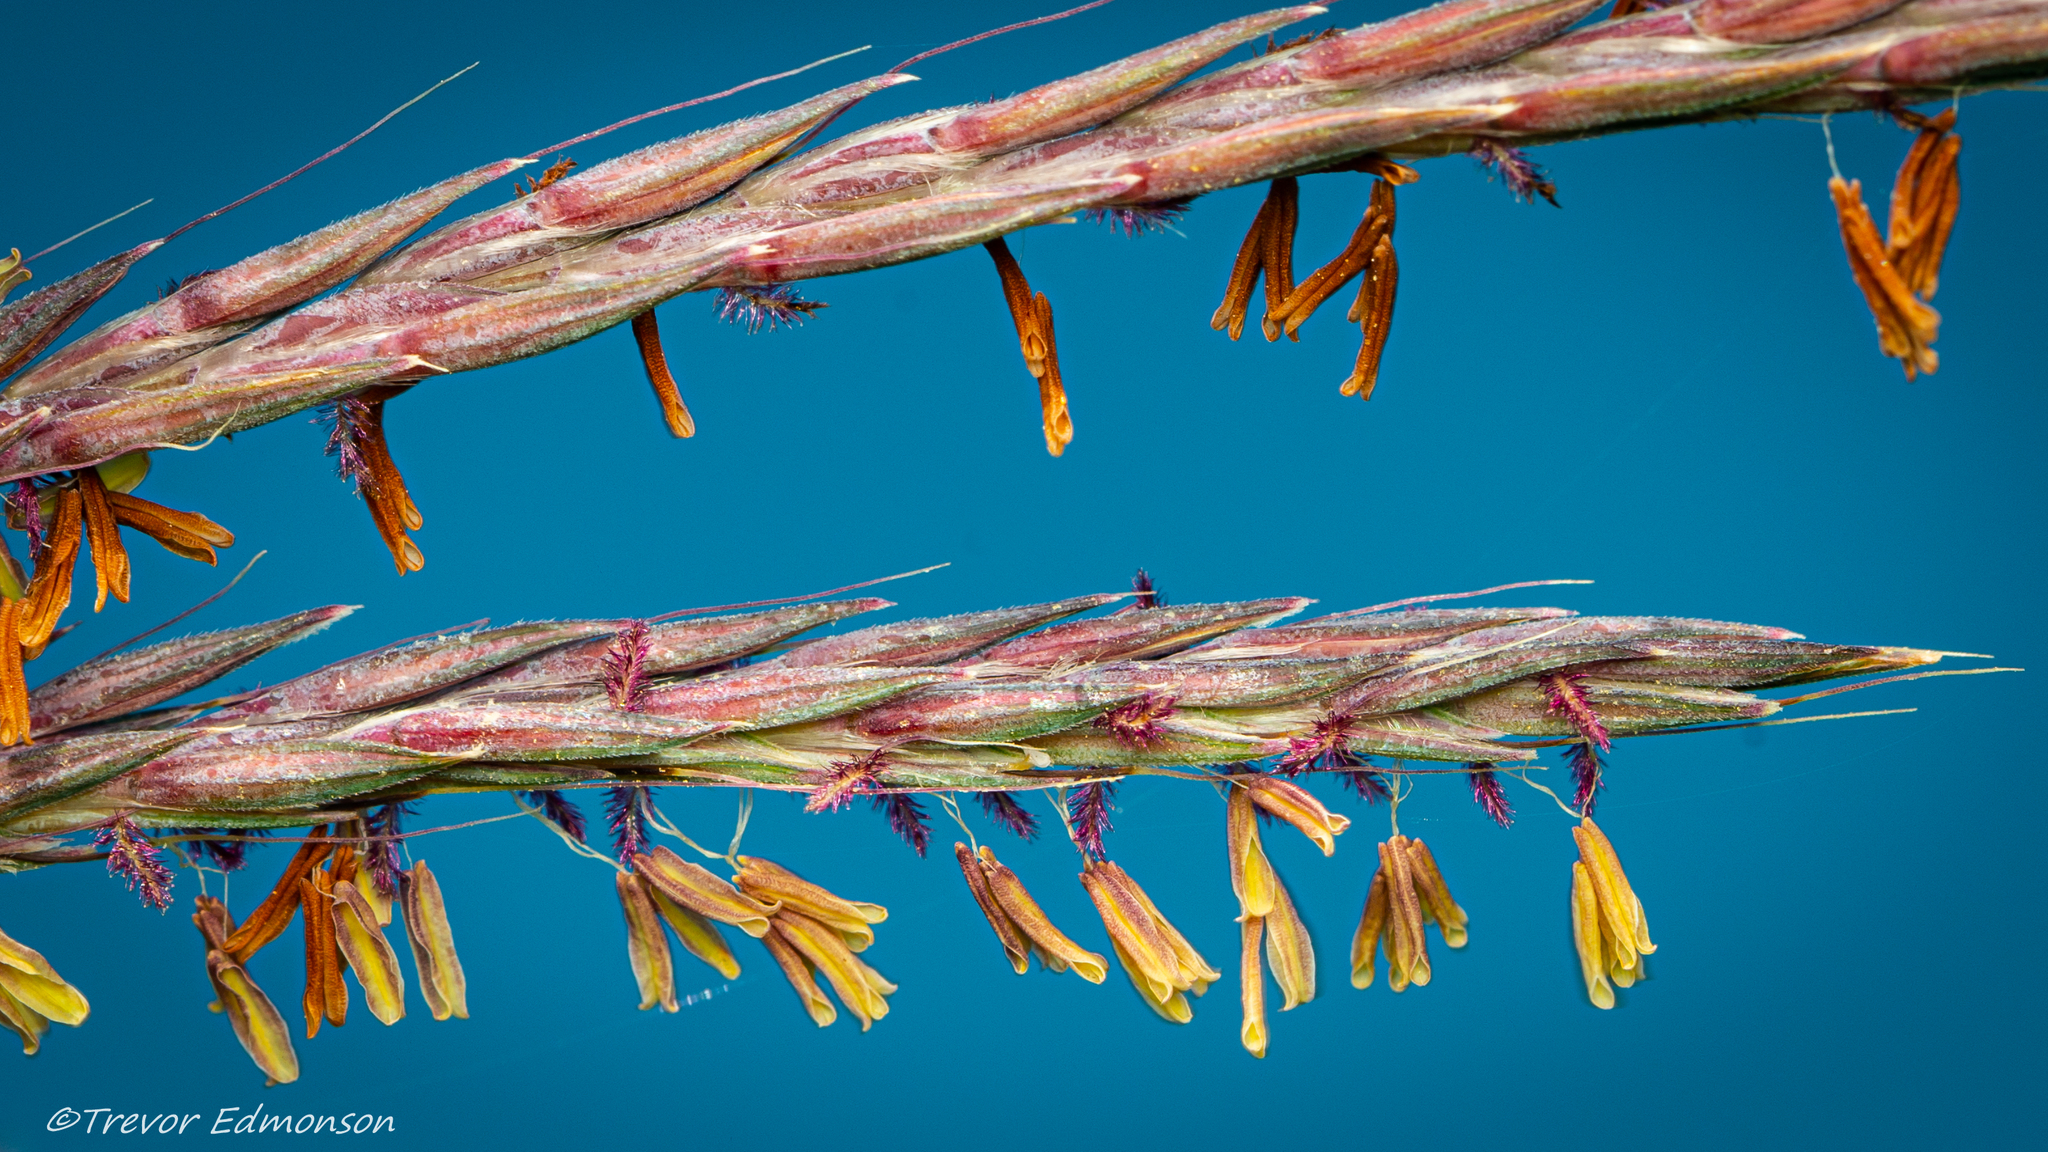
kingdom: Plantae
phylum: Tracheophyta
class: Liliopsida
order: Poales
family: Poaceae
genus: Andropogon
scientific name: Andropogon gerardi
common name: Big bluestem
